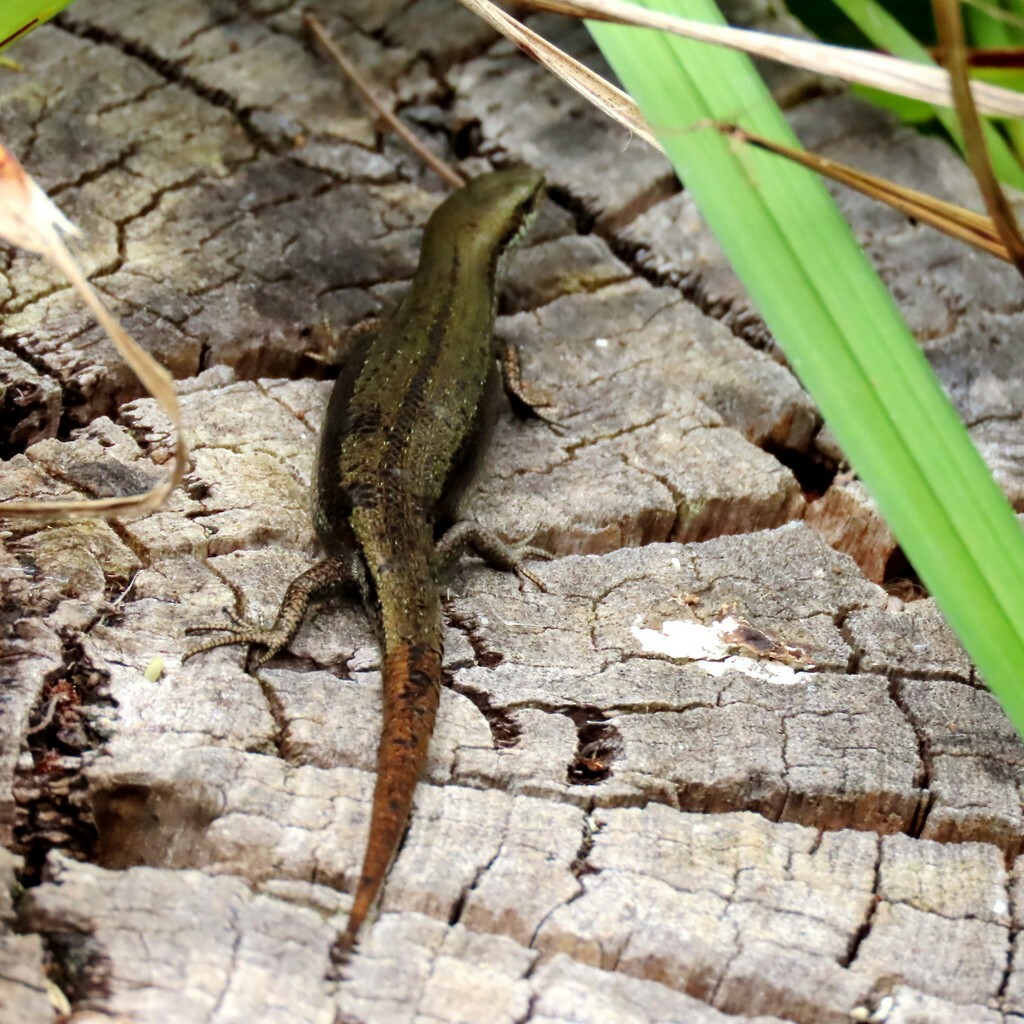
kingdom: Animalia
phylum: Chordata
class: Squamata
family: Scincidae
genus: Lampropholis
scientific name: Lampropholis guichenoti
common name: Garden skink
